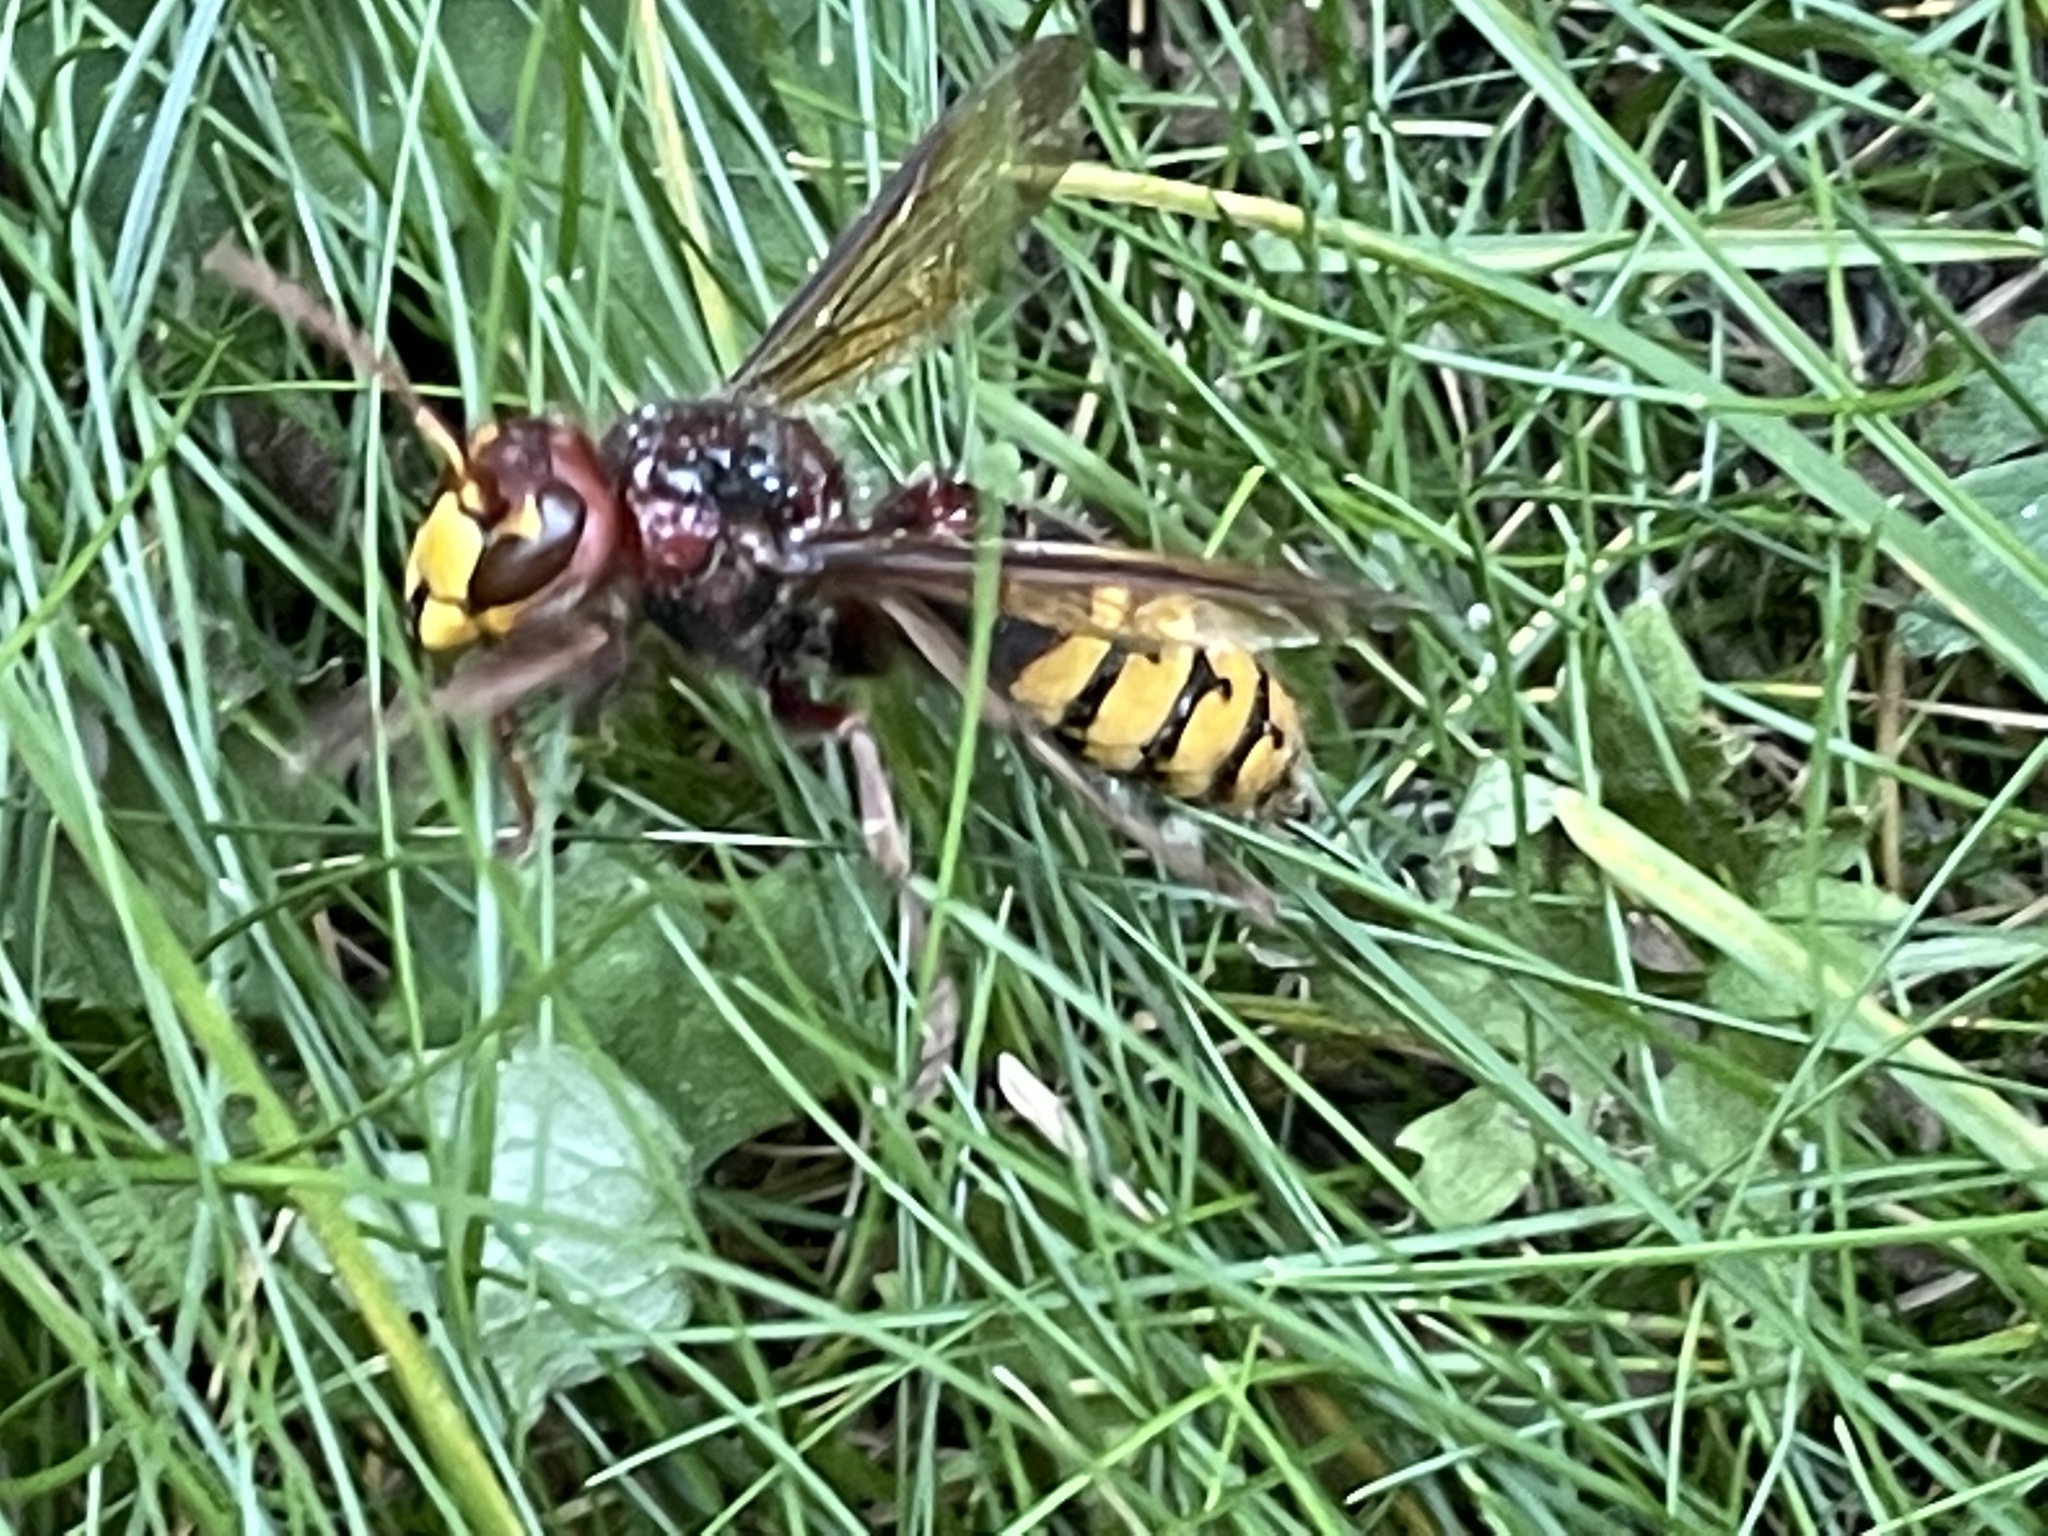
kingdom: Animalia
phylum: Arthropoda
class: Insecta
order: Hymenoptera
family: Vespidae
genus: Vespa
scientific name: Vespa crabro
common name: Hornet
